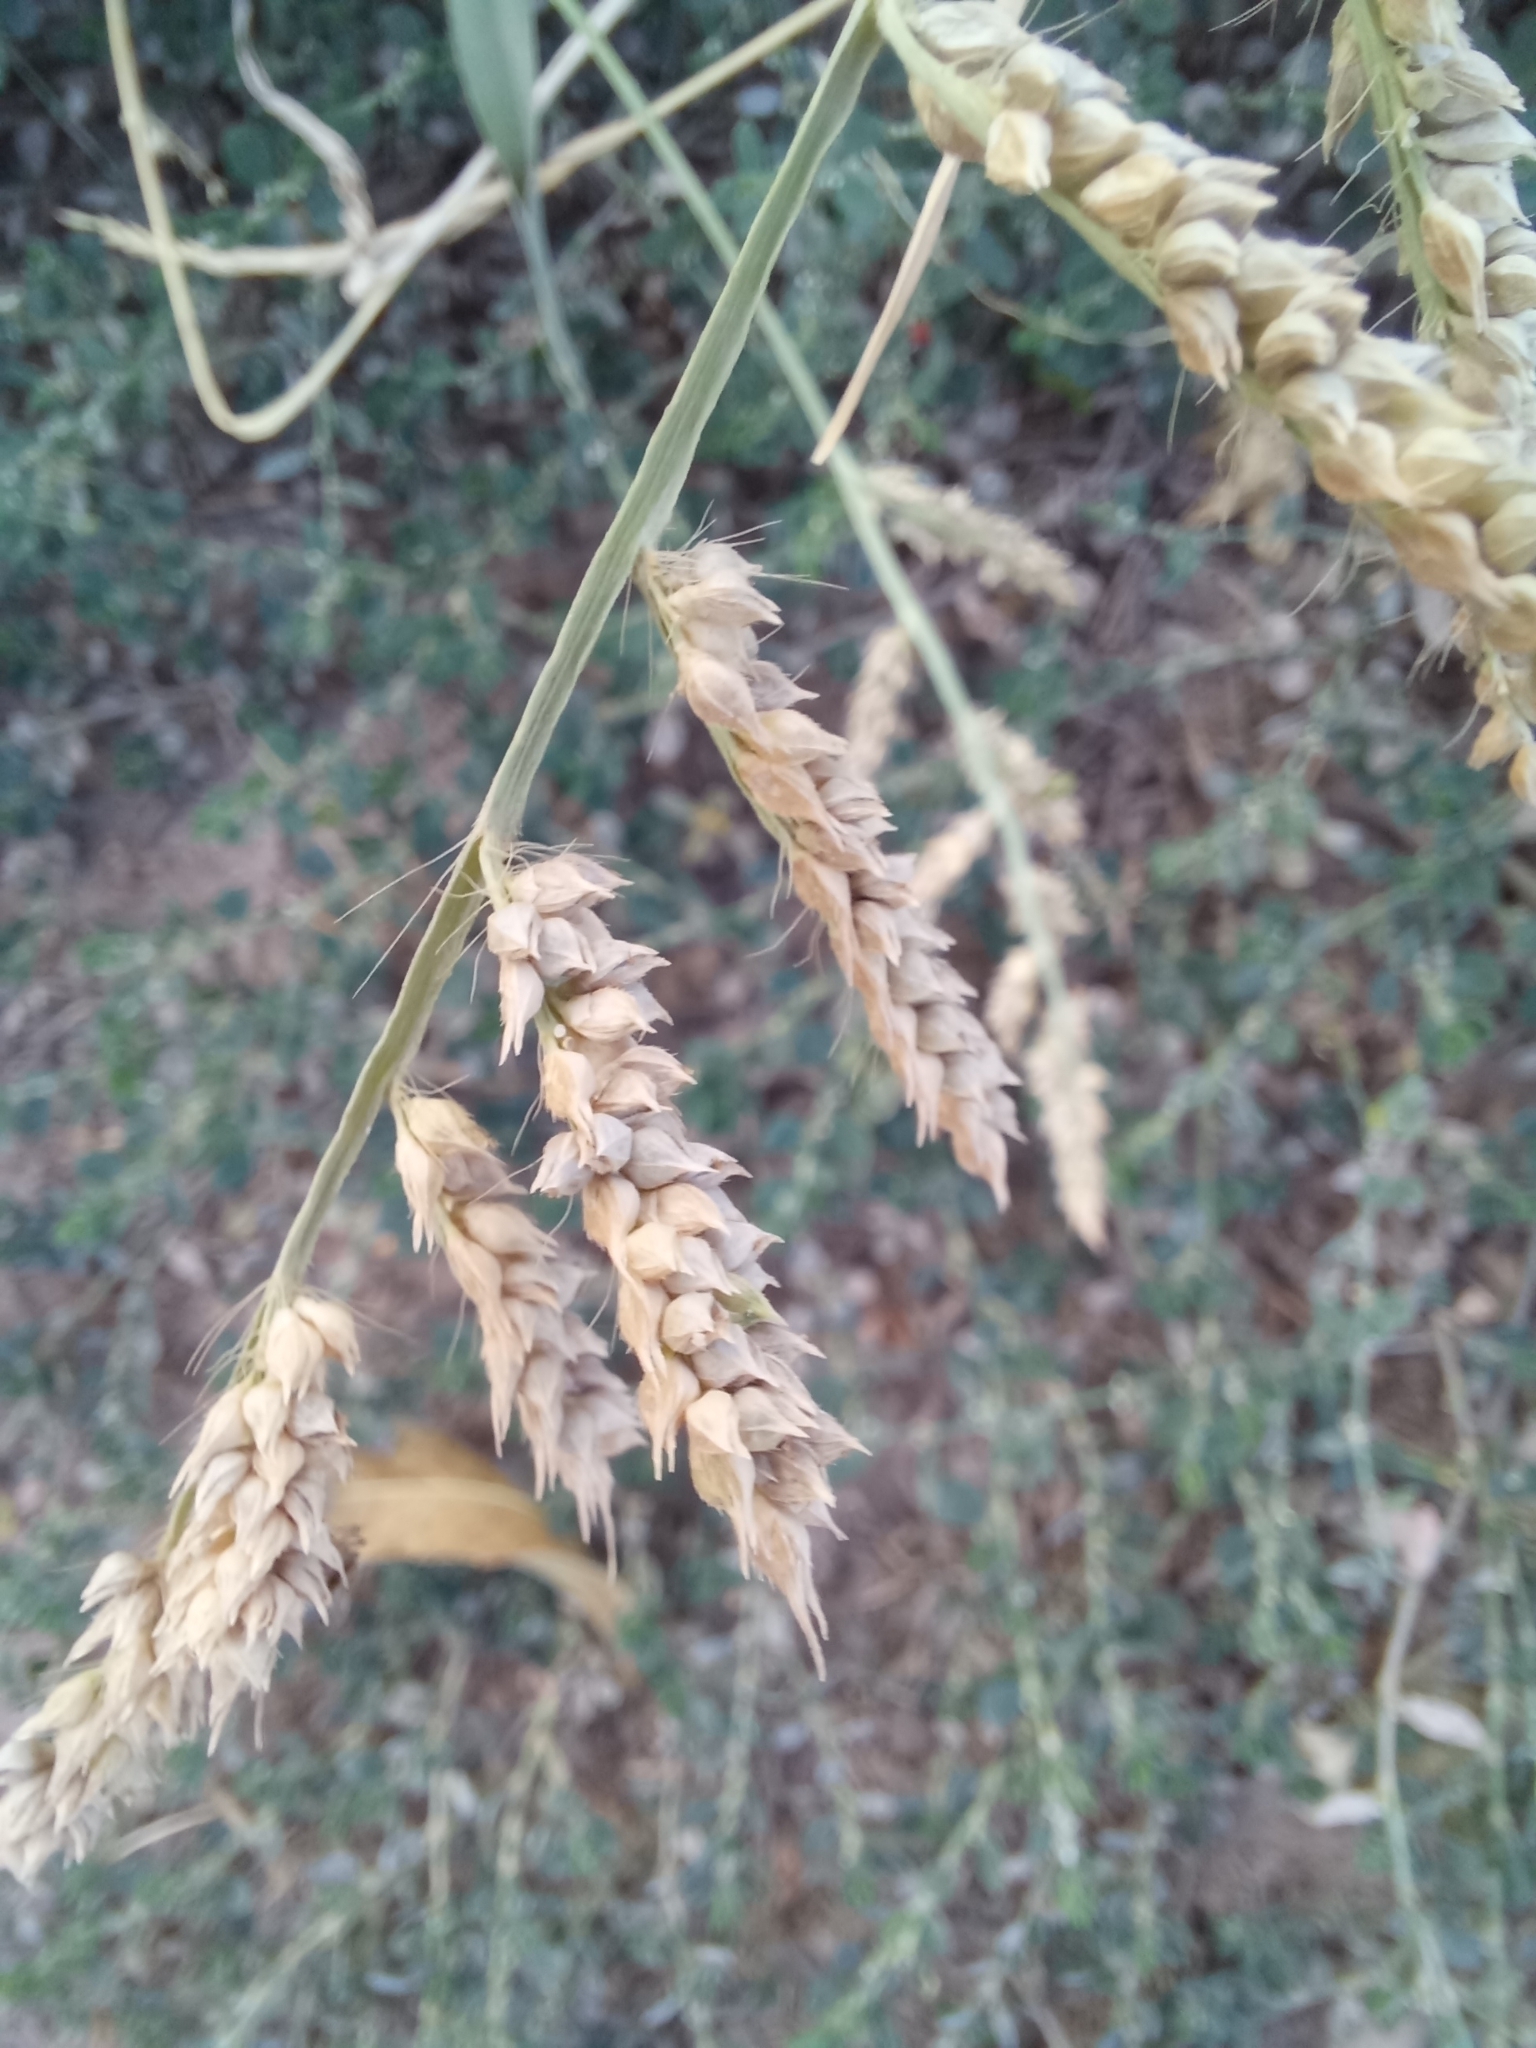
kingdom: Plantae
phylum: Tracheophyta
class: Liliopsida
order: Poales
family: Poaceae
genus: Echinochloa
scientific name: Echinochloa crus-galli
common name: Cockspur
